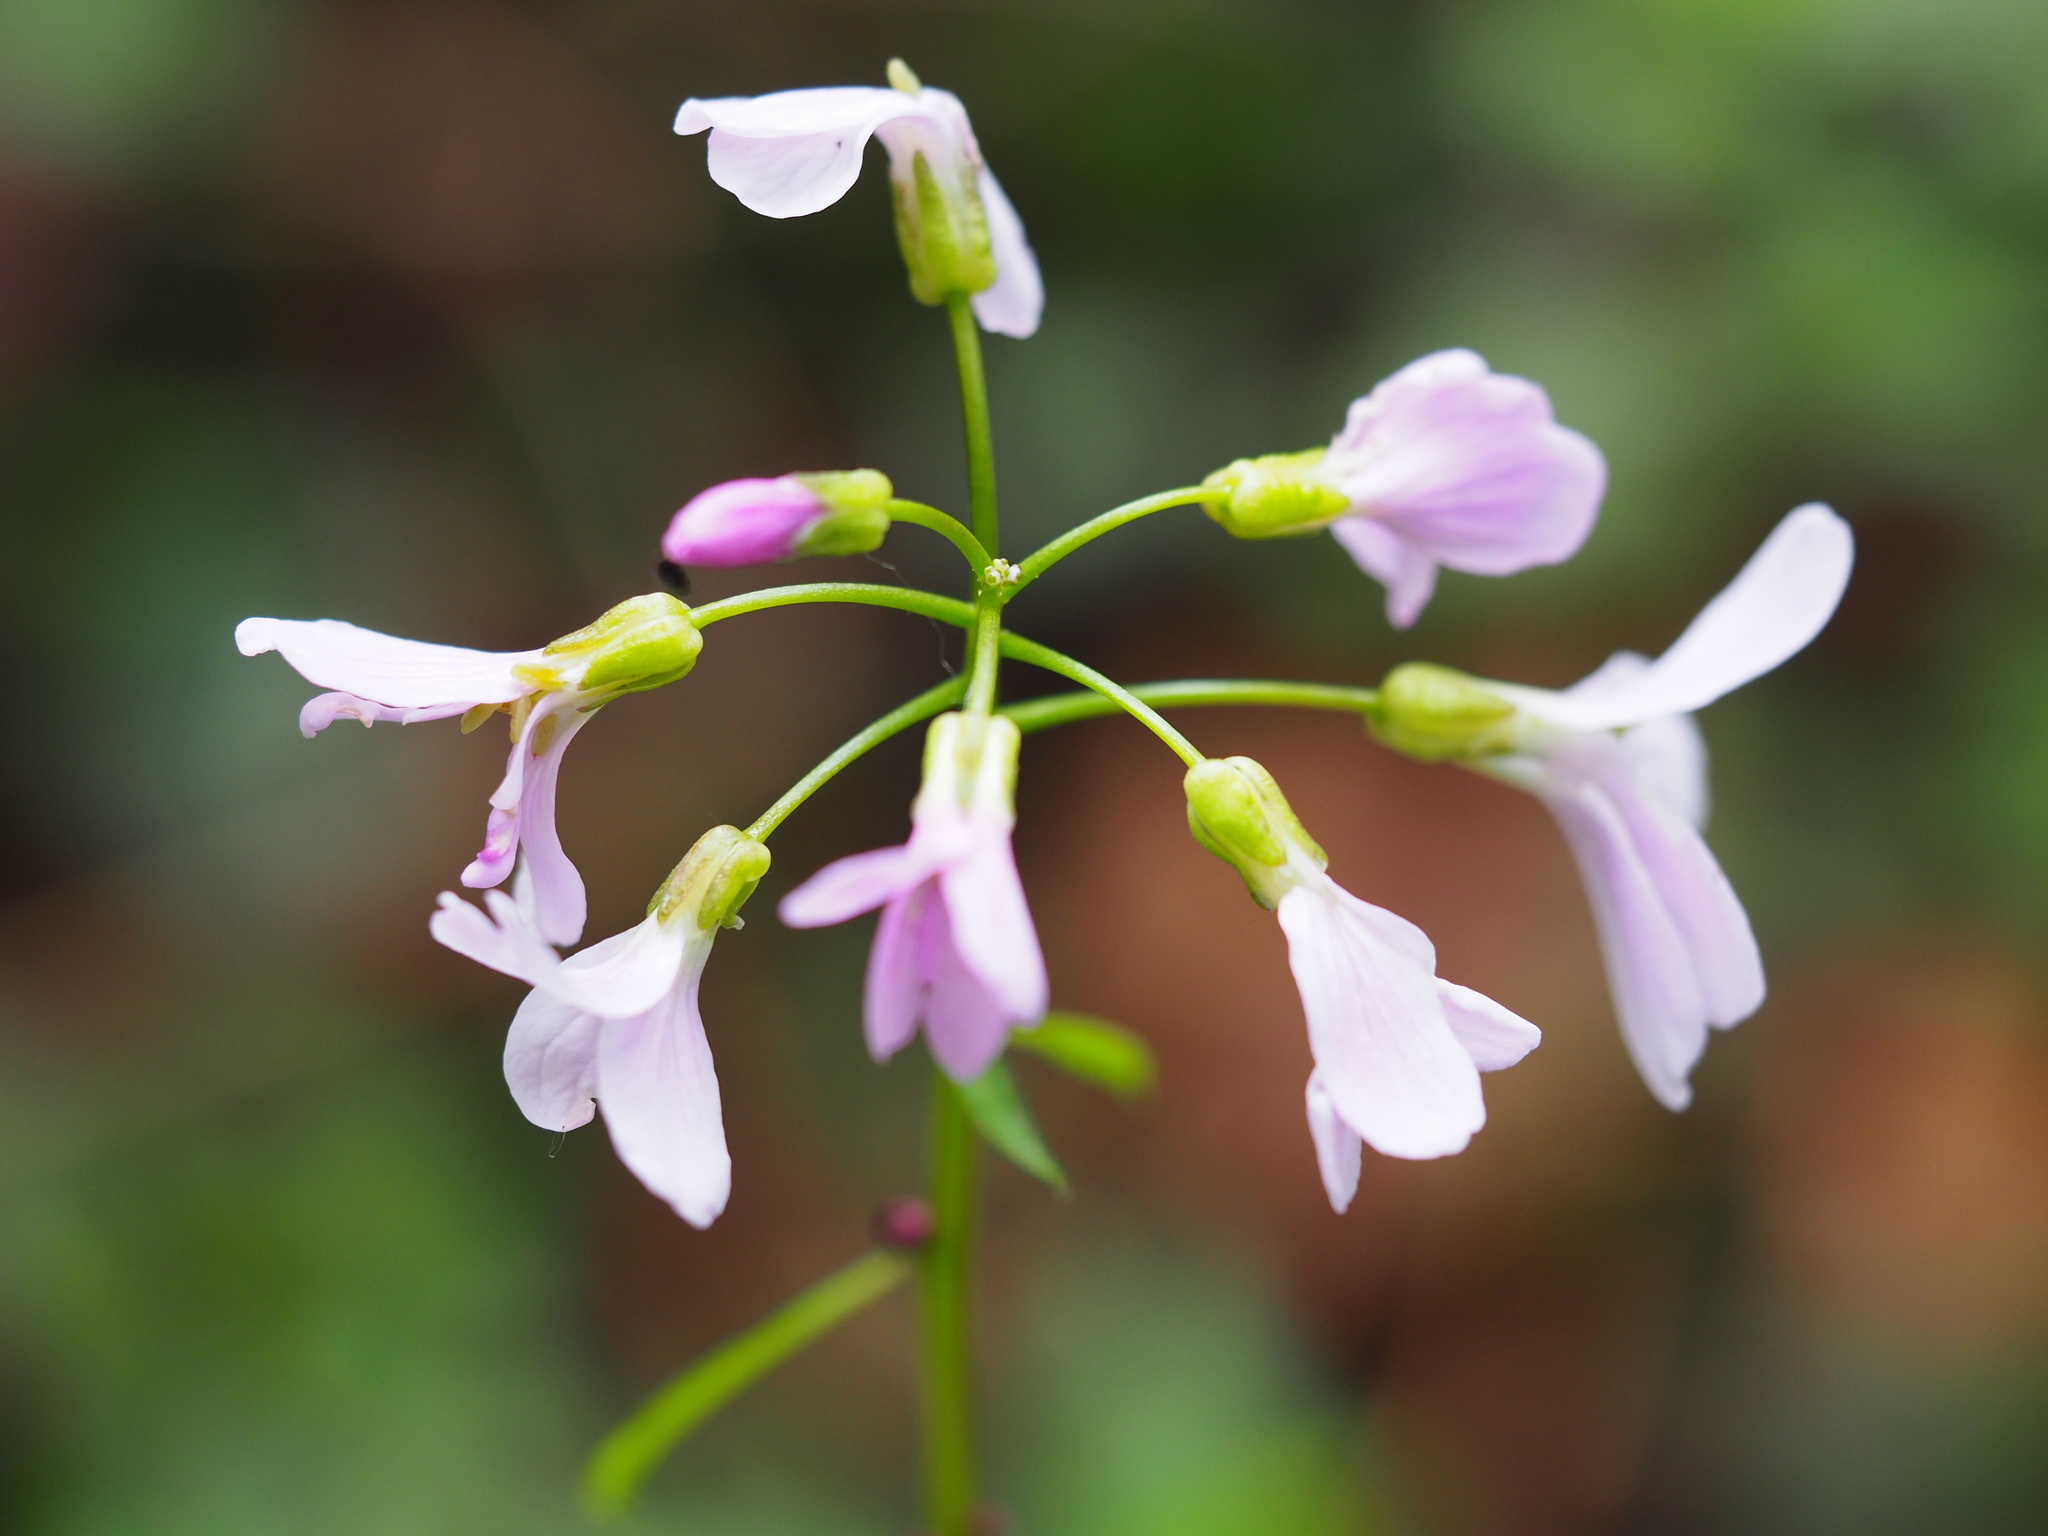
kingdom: Plantae
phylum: Tracheophyta
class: Magnoliopsida
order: Brassicales
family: Brassicaceae
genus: Cardamine
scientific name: Cardamine bulbifera
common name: Coralroot bittercress
